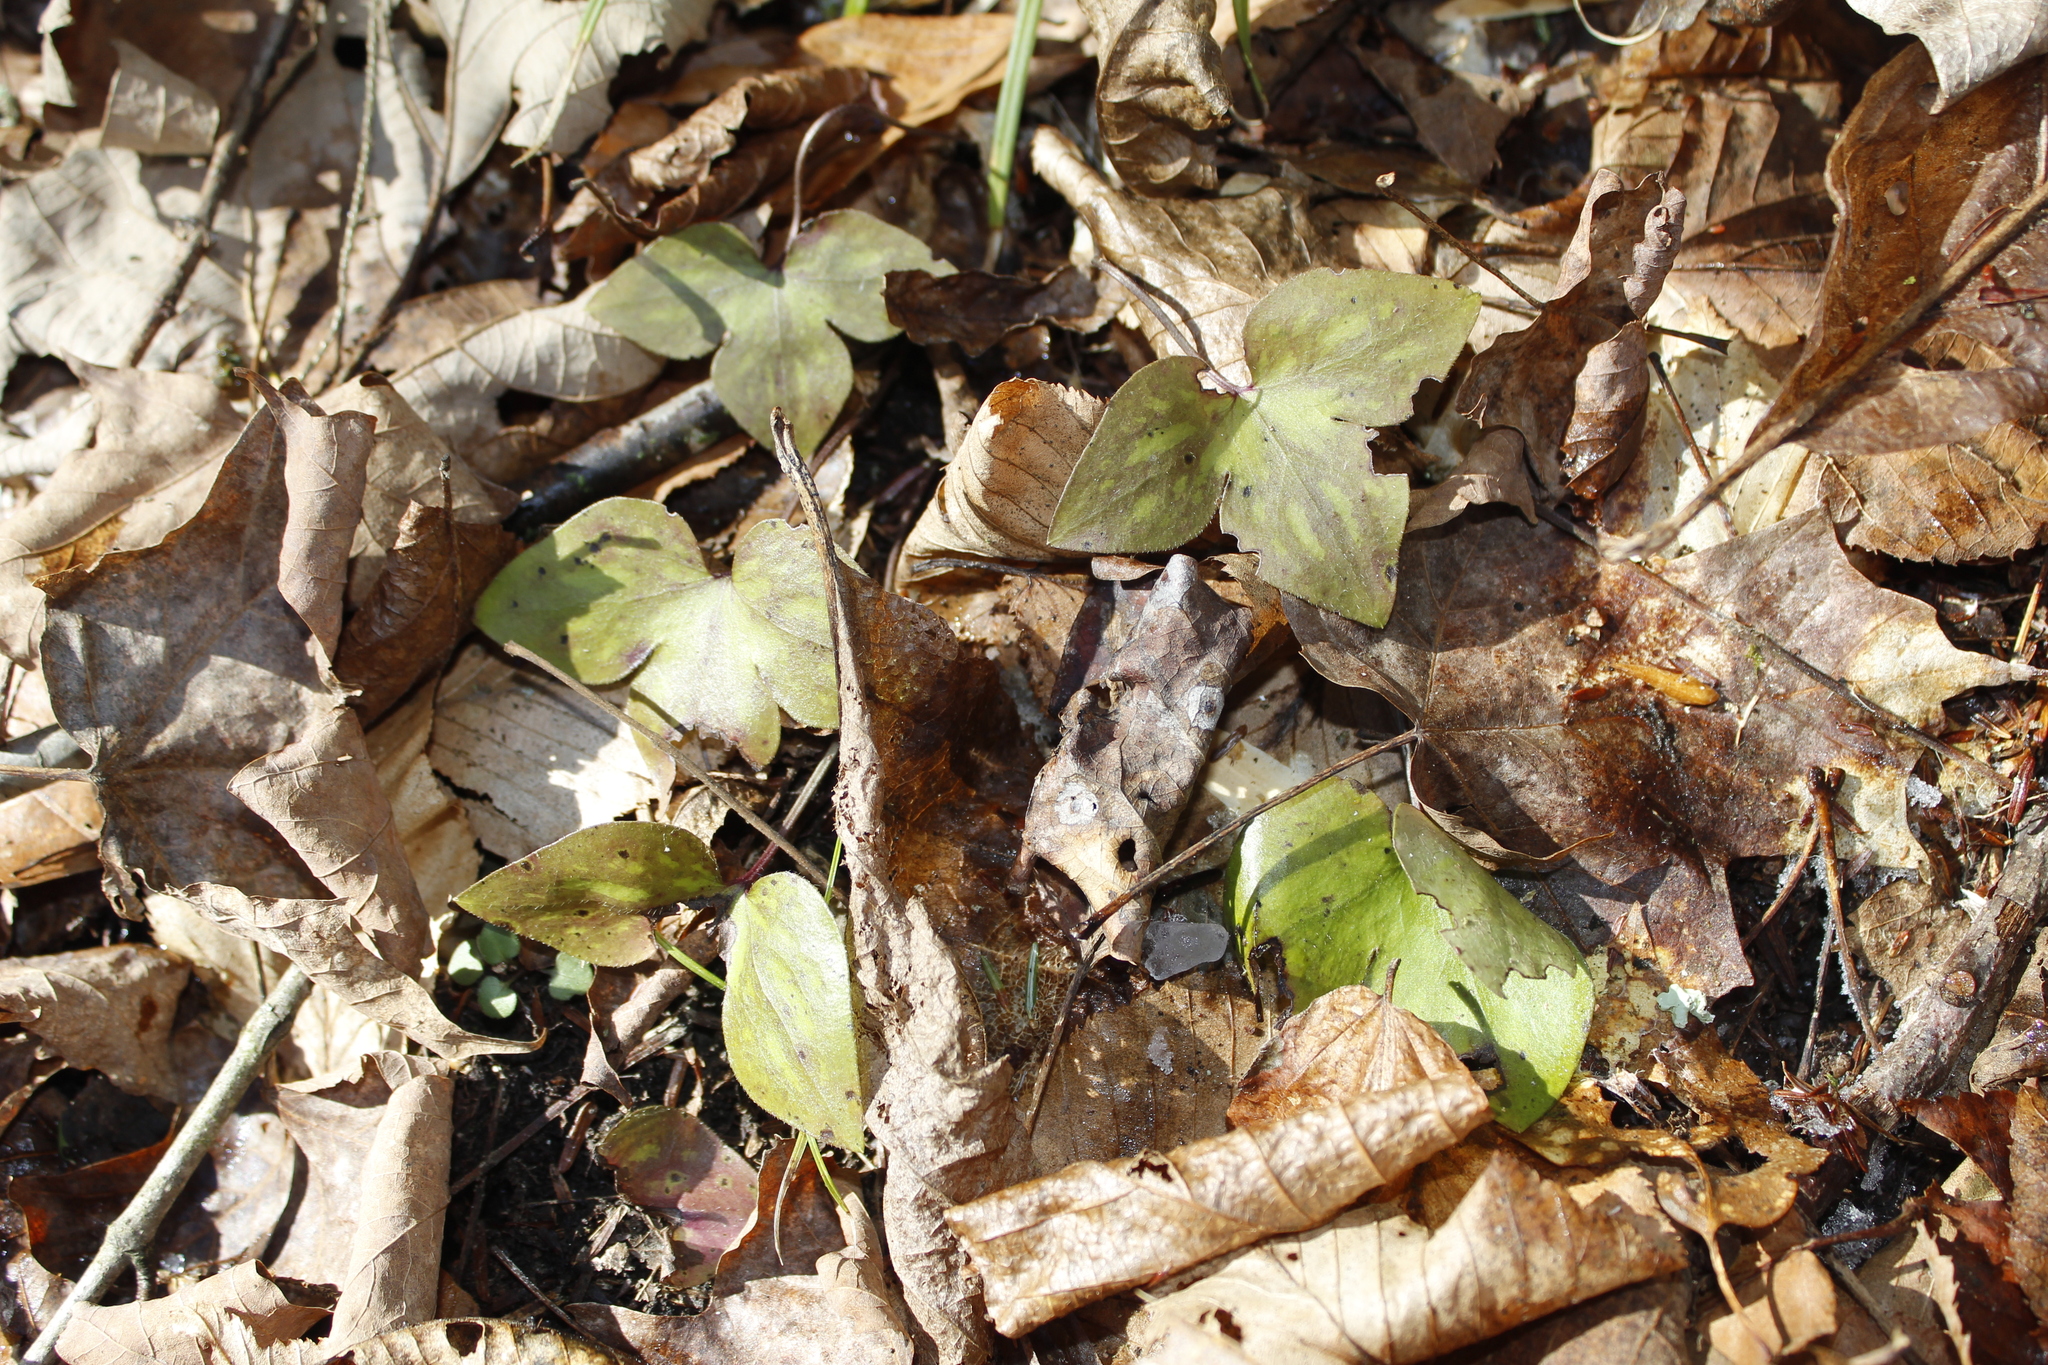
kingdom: Plantae
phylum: Tracheophyta
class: Magnoliopsida
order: Ranunculales
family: Ranunculaceae
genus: Hepatica
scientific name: Hepatica acutiloba
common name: Sharp-lobed hepatica
